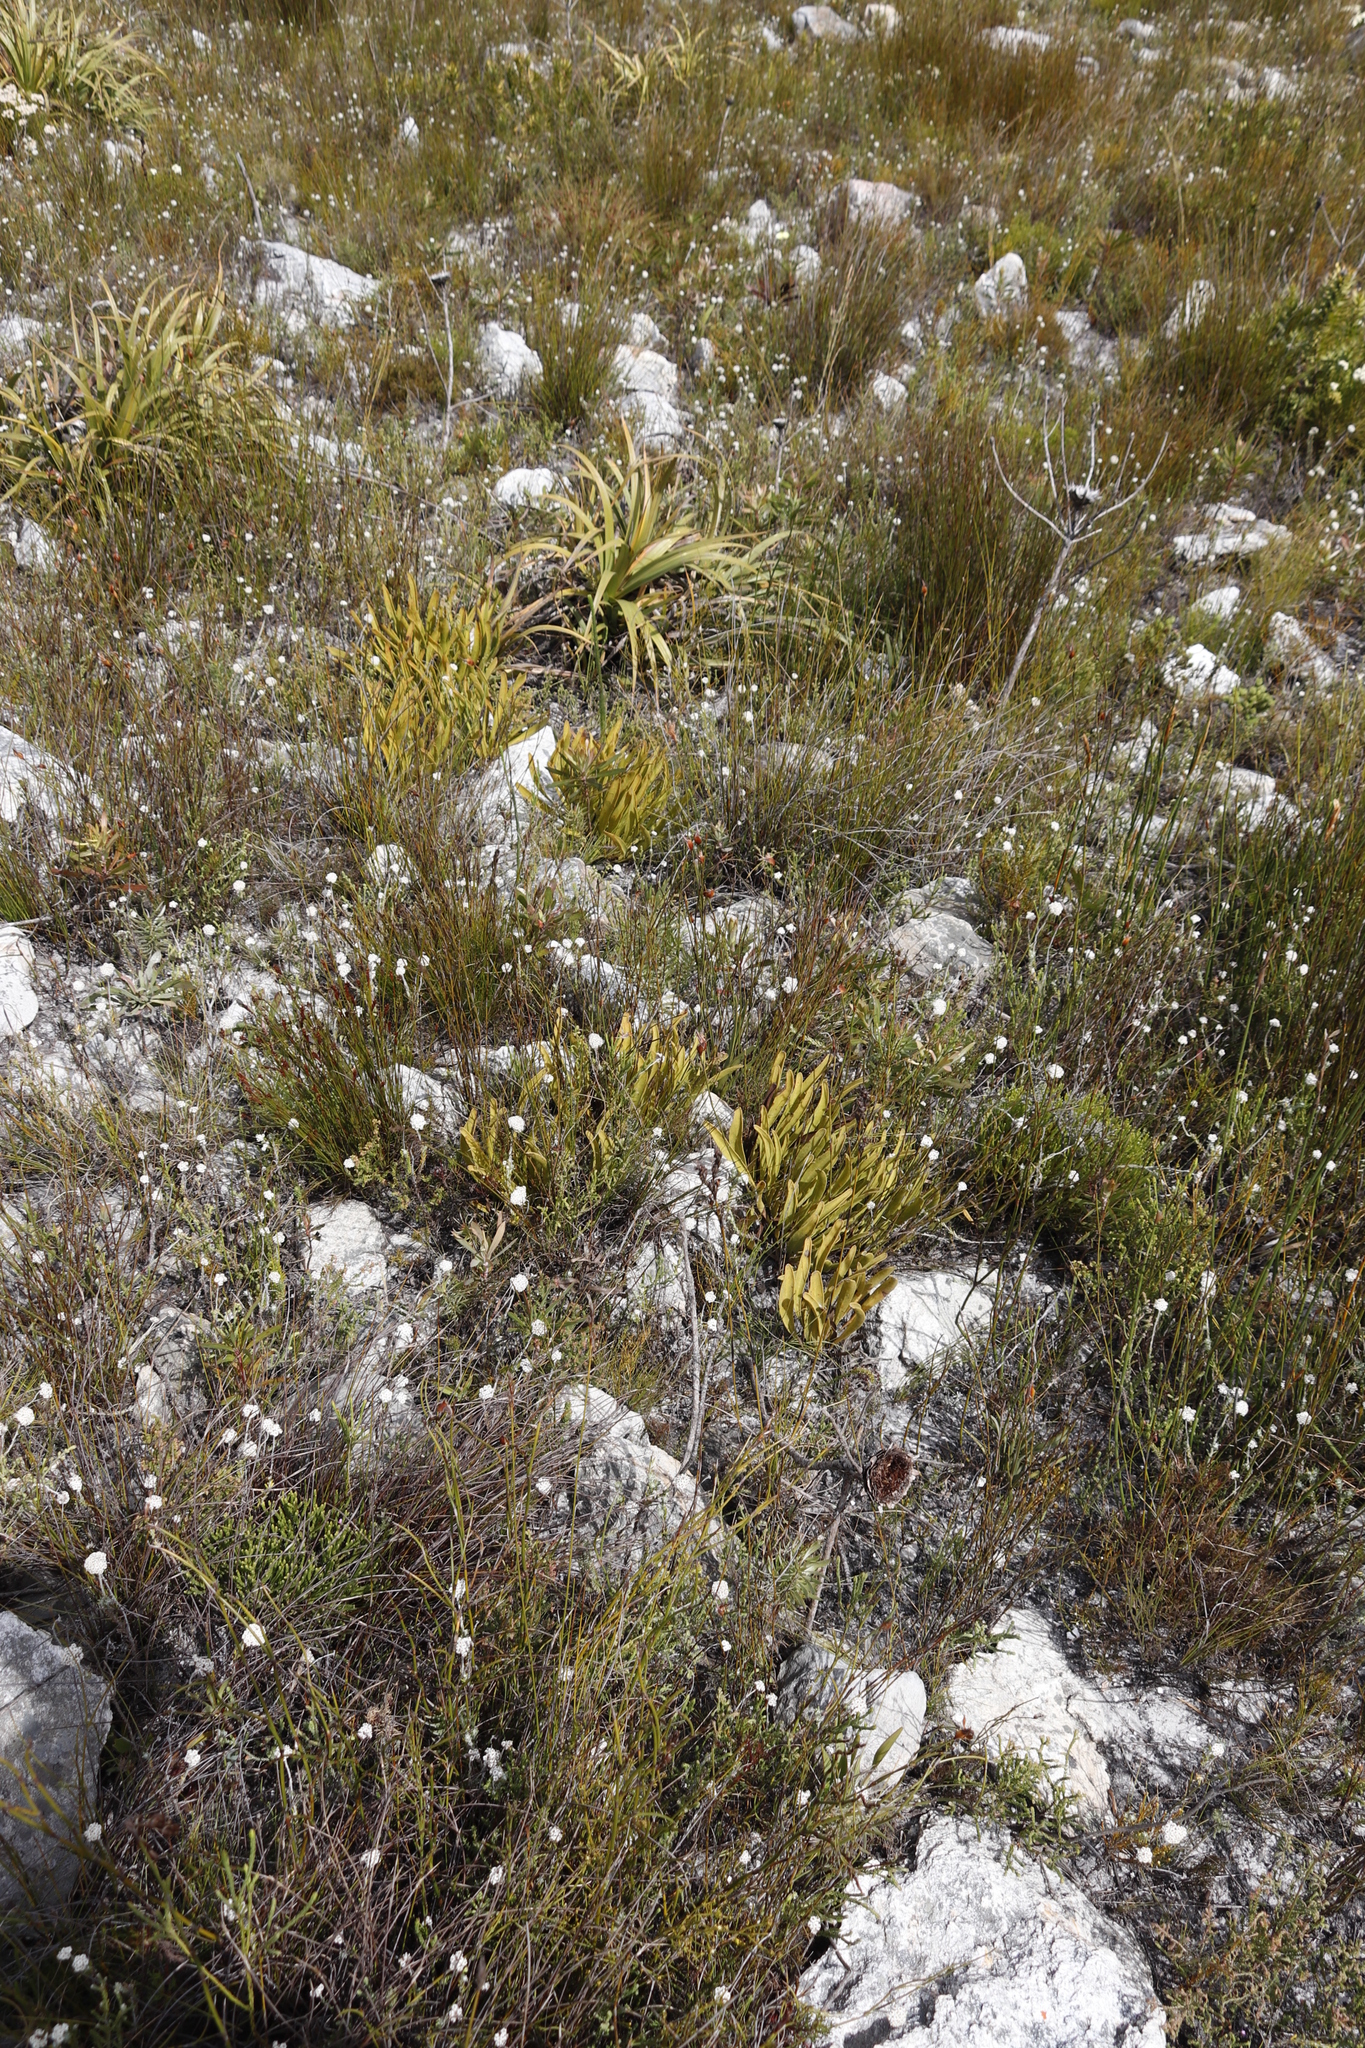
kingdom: Plantae
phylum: Tracheophyta
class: Magnoliopsida
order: Proteales
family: Proteaceae
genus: Protea
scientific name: Protea scabra
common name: Sandpaper-leaf sugarbush
